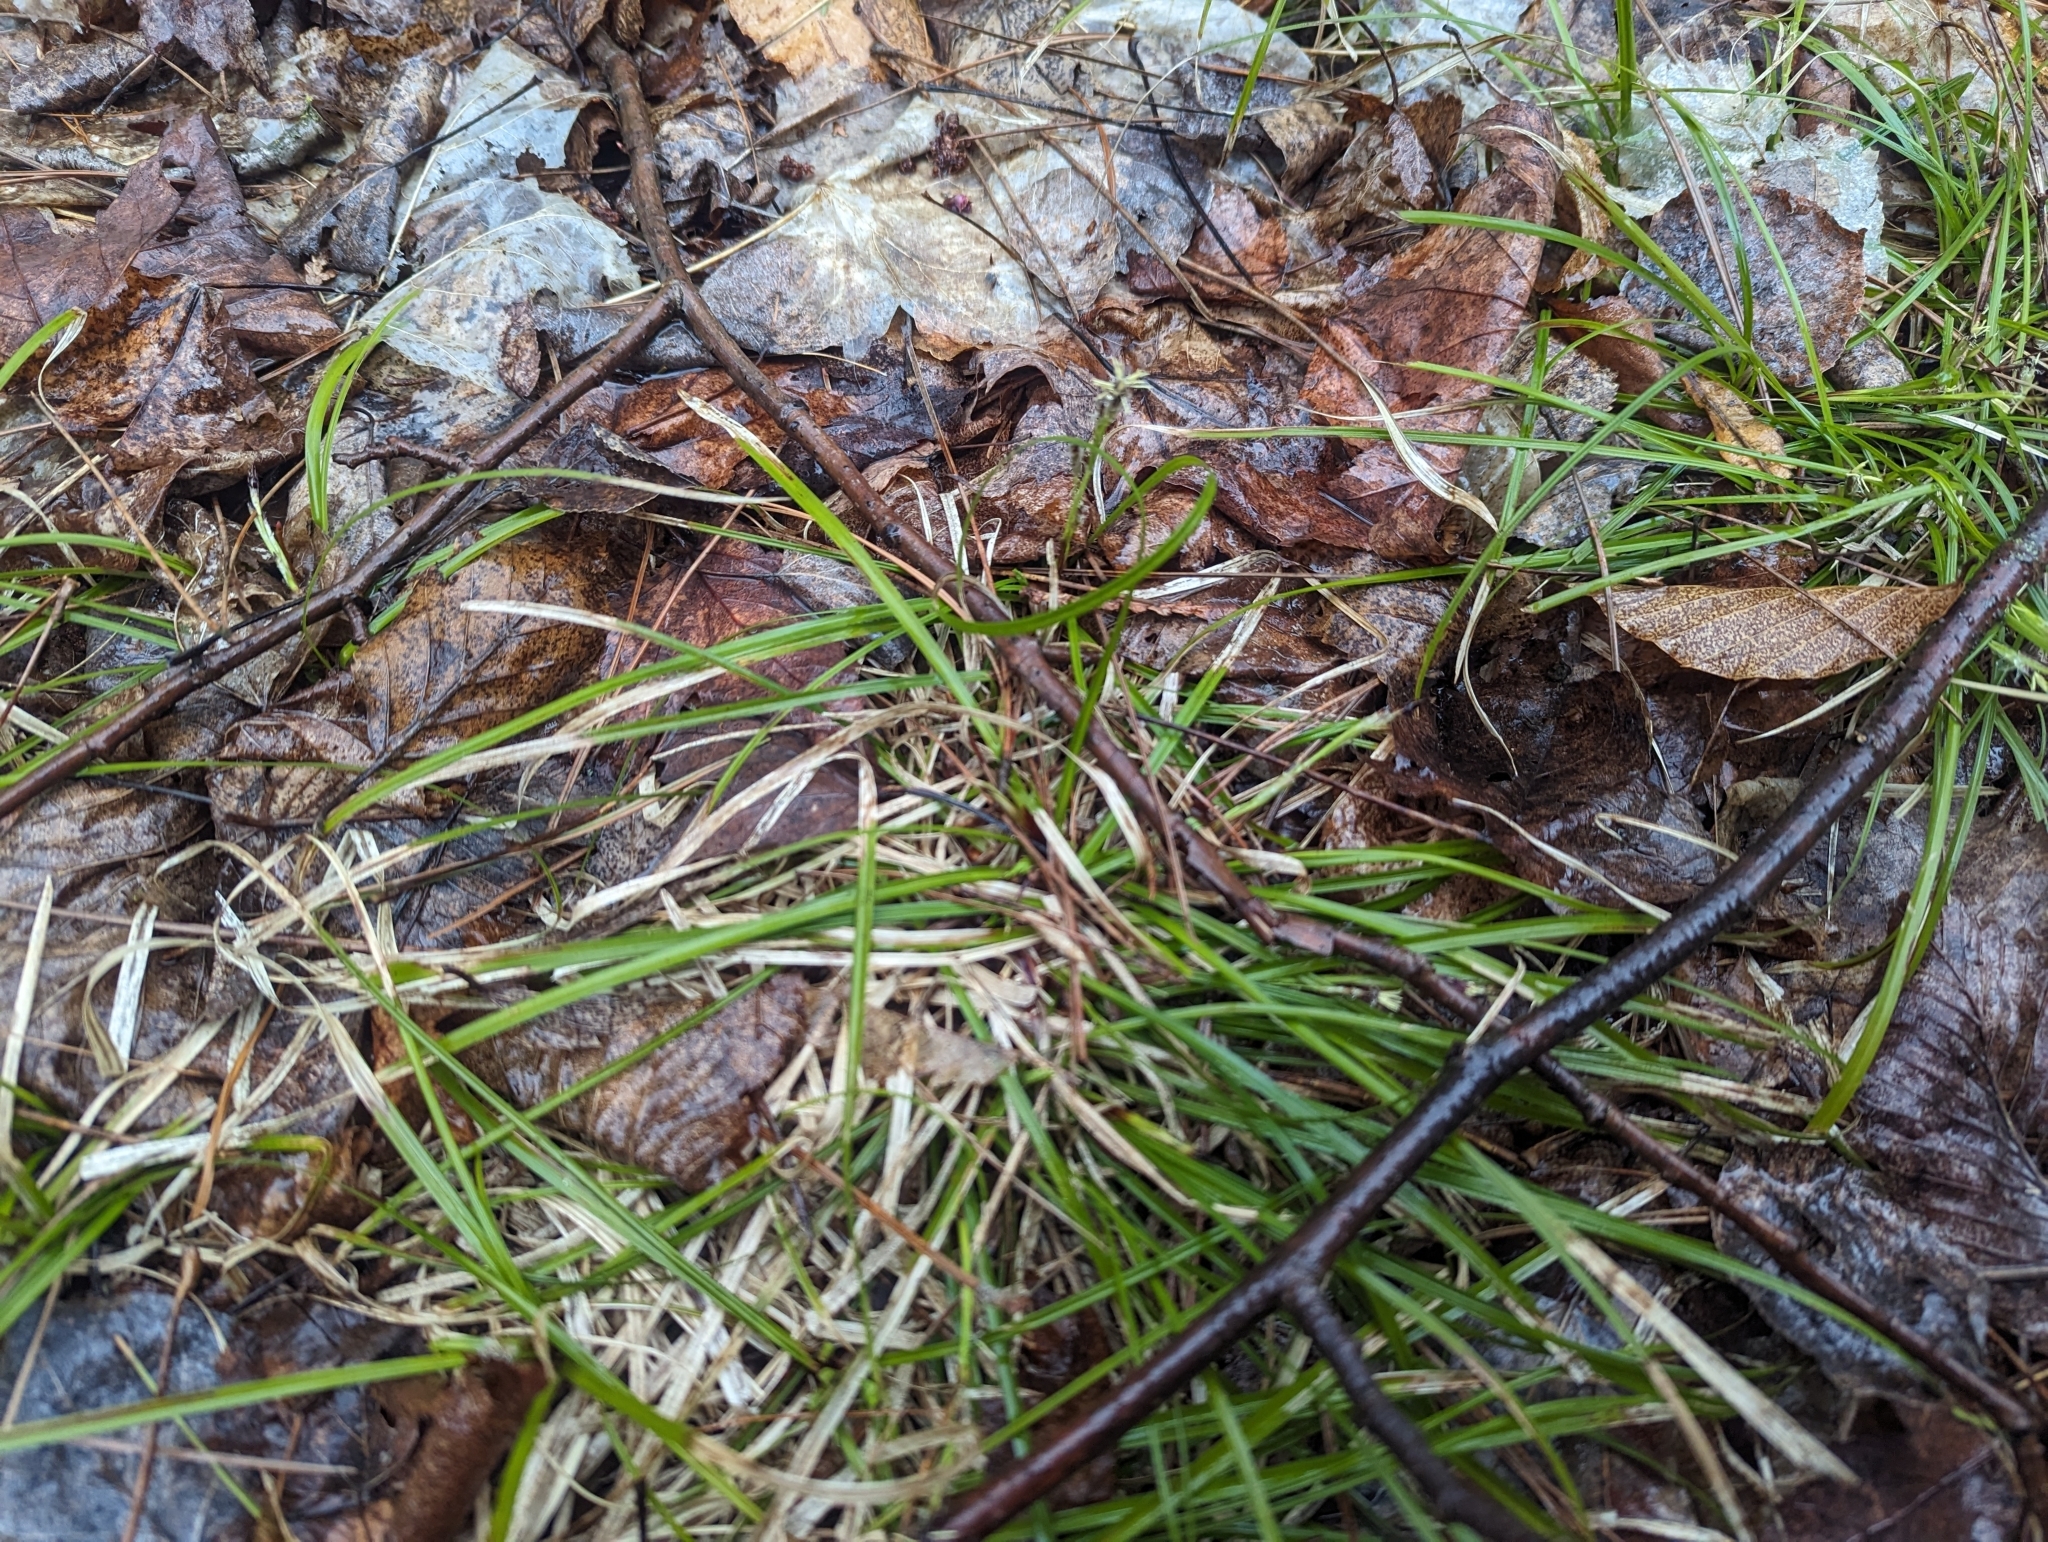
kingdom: Plantae
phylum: Tracheophyta
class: Liliopsida
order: Poales
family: Cyperaceae
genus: Carex
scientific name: Carex pedunculata
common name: Pedunculate sedge
